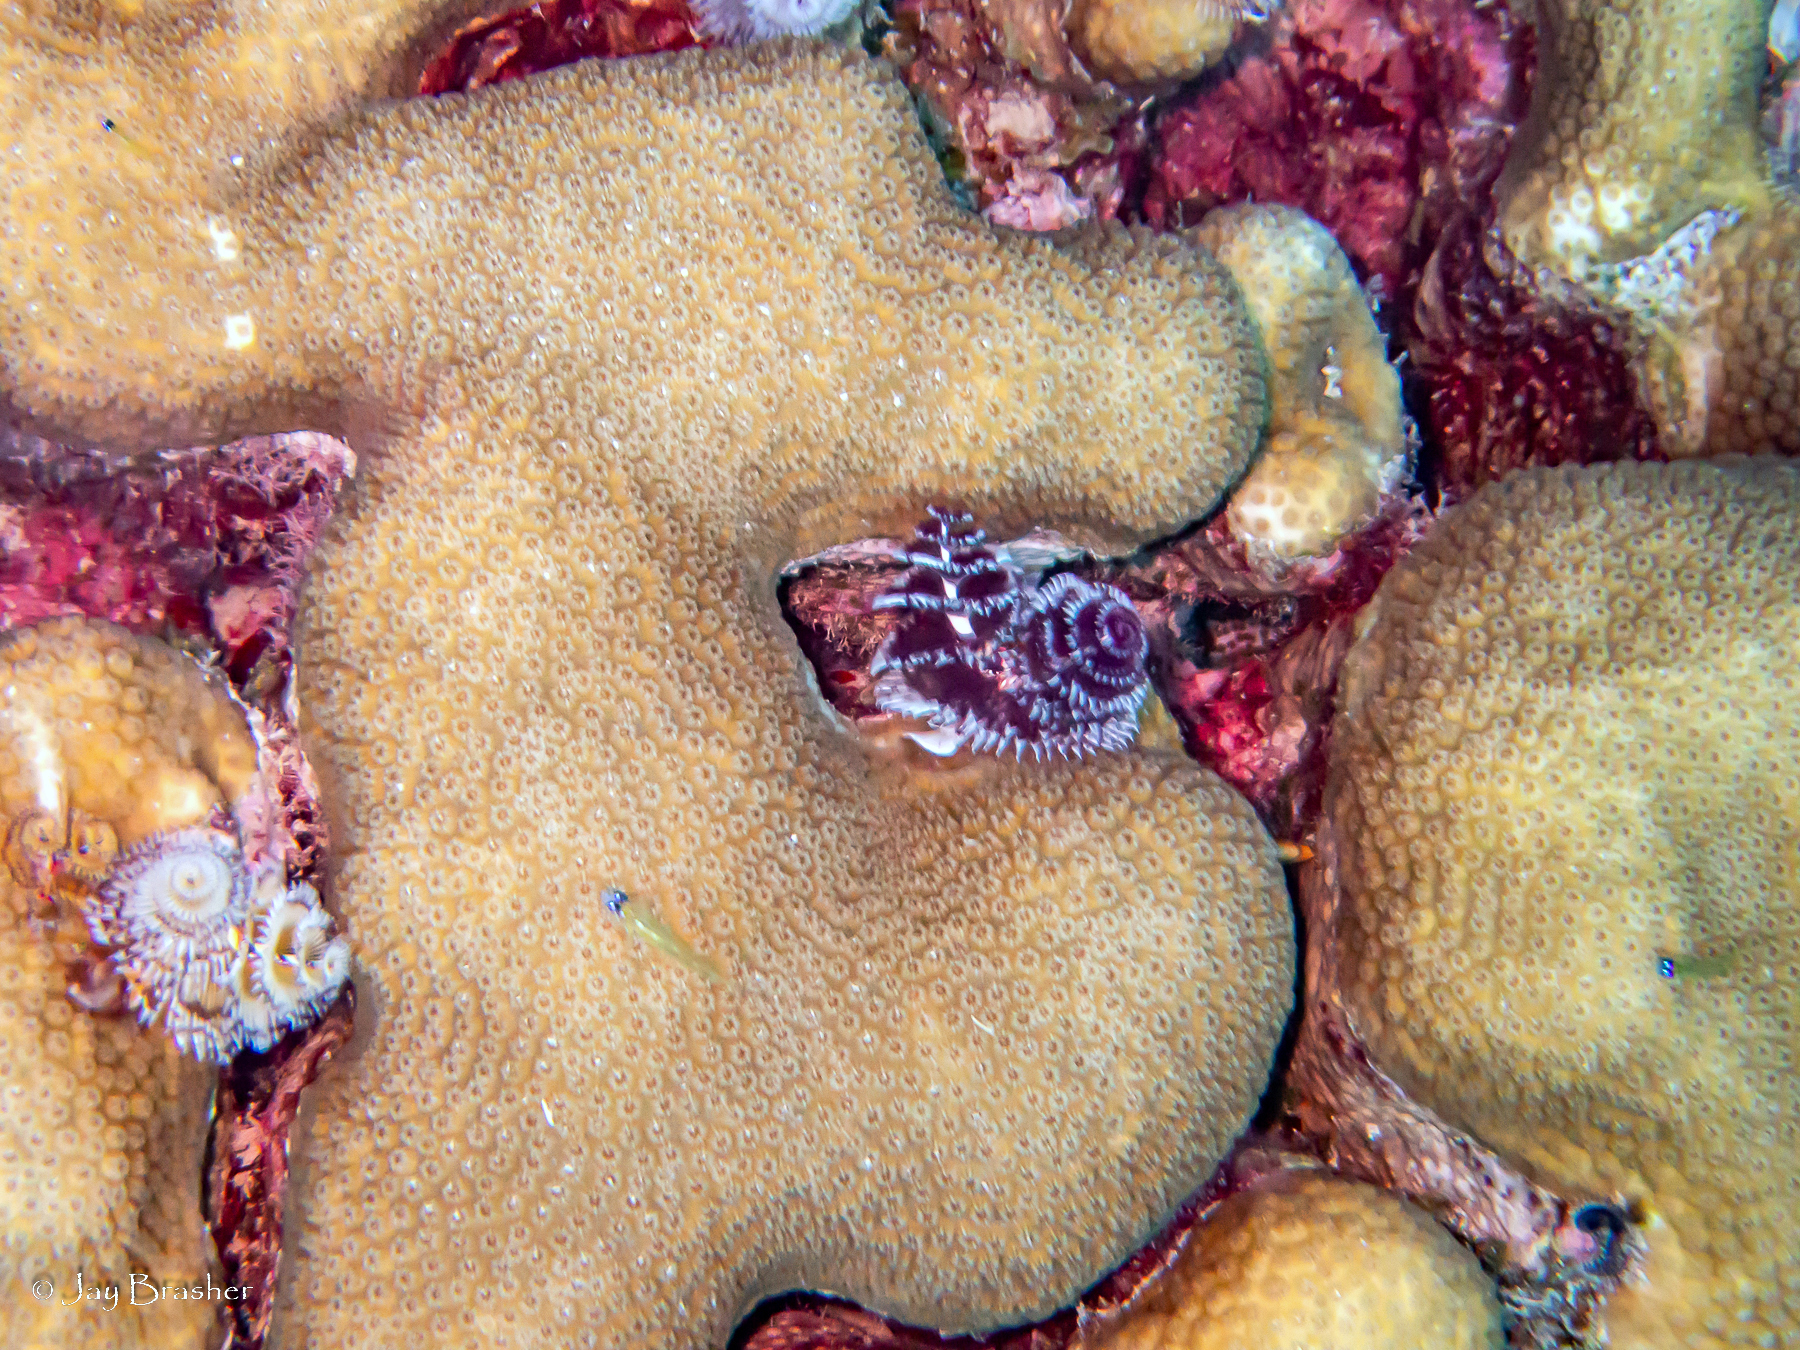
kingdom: Animalia
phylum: Annelida
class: Polychaeta
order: Sabellida
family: Serpulidae
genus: Spirobranchus
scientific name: Spirobranchus giganteus
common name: Christmas tree worm
